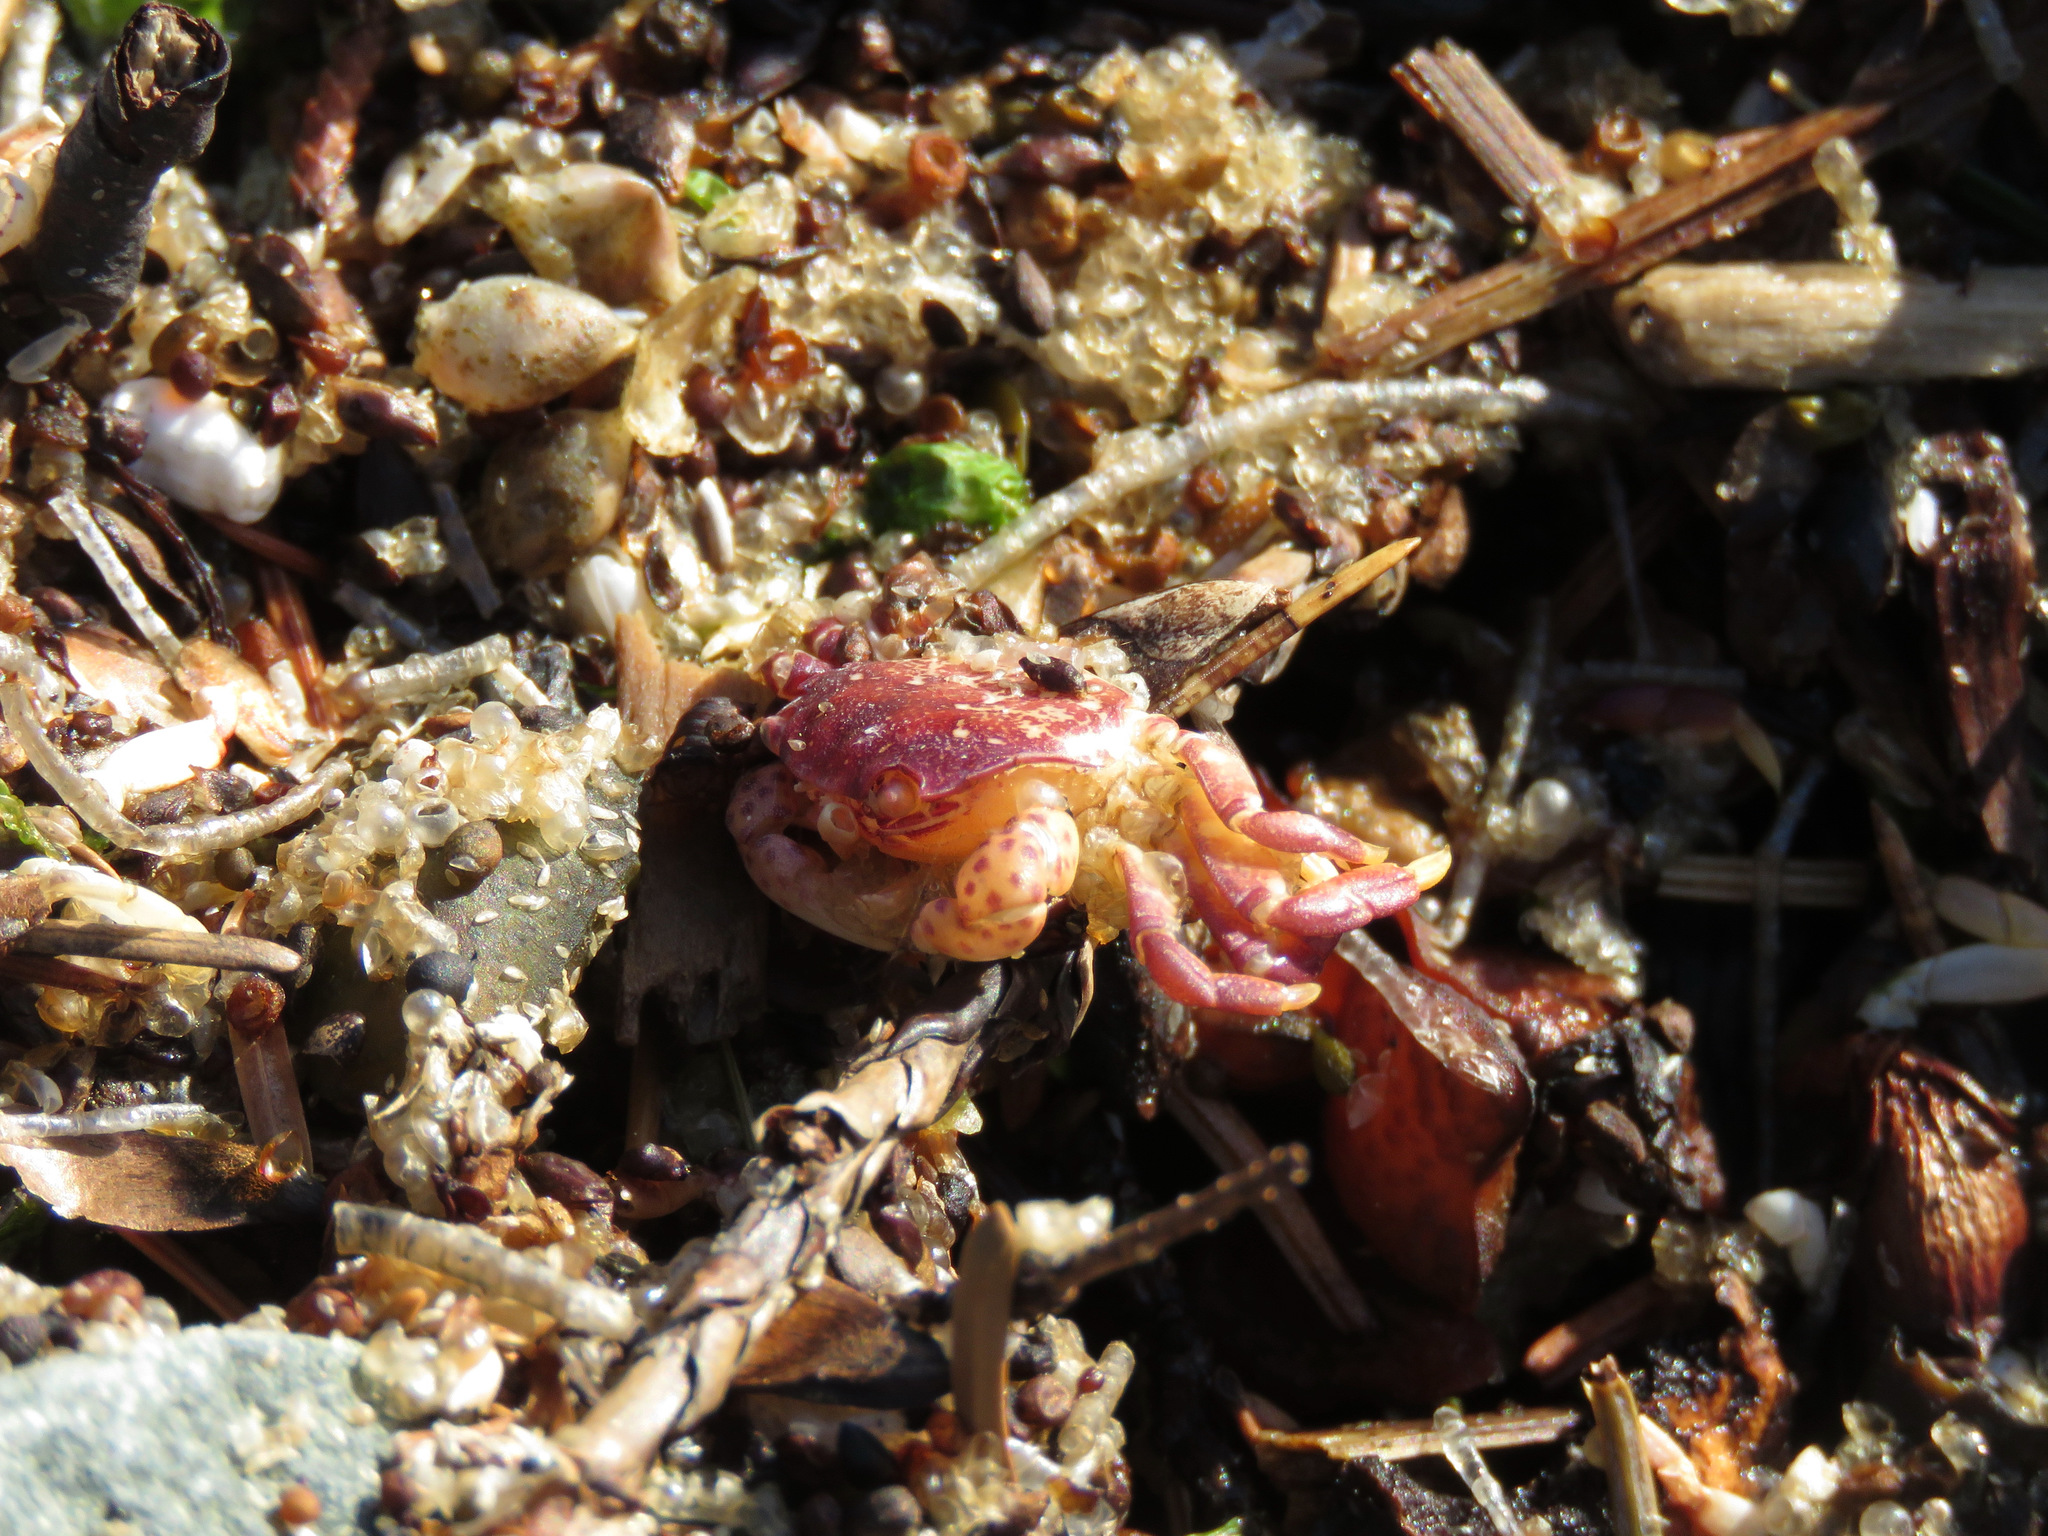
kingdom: Animalia
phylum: Arthropoda
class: Malacostraca
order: Decapoda
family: Varunidae
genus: Hemigrapsus
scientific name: Hemigrapsus nudus
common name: Purple shore crab
